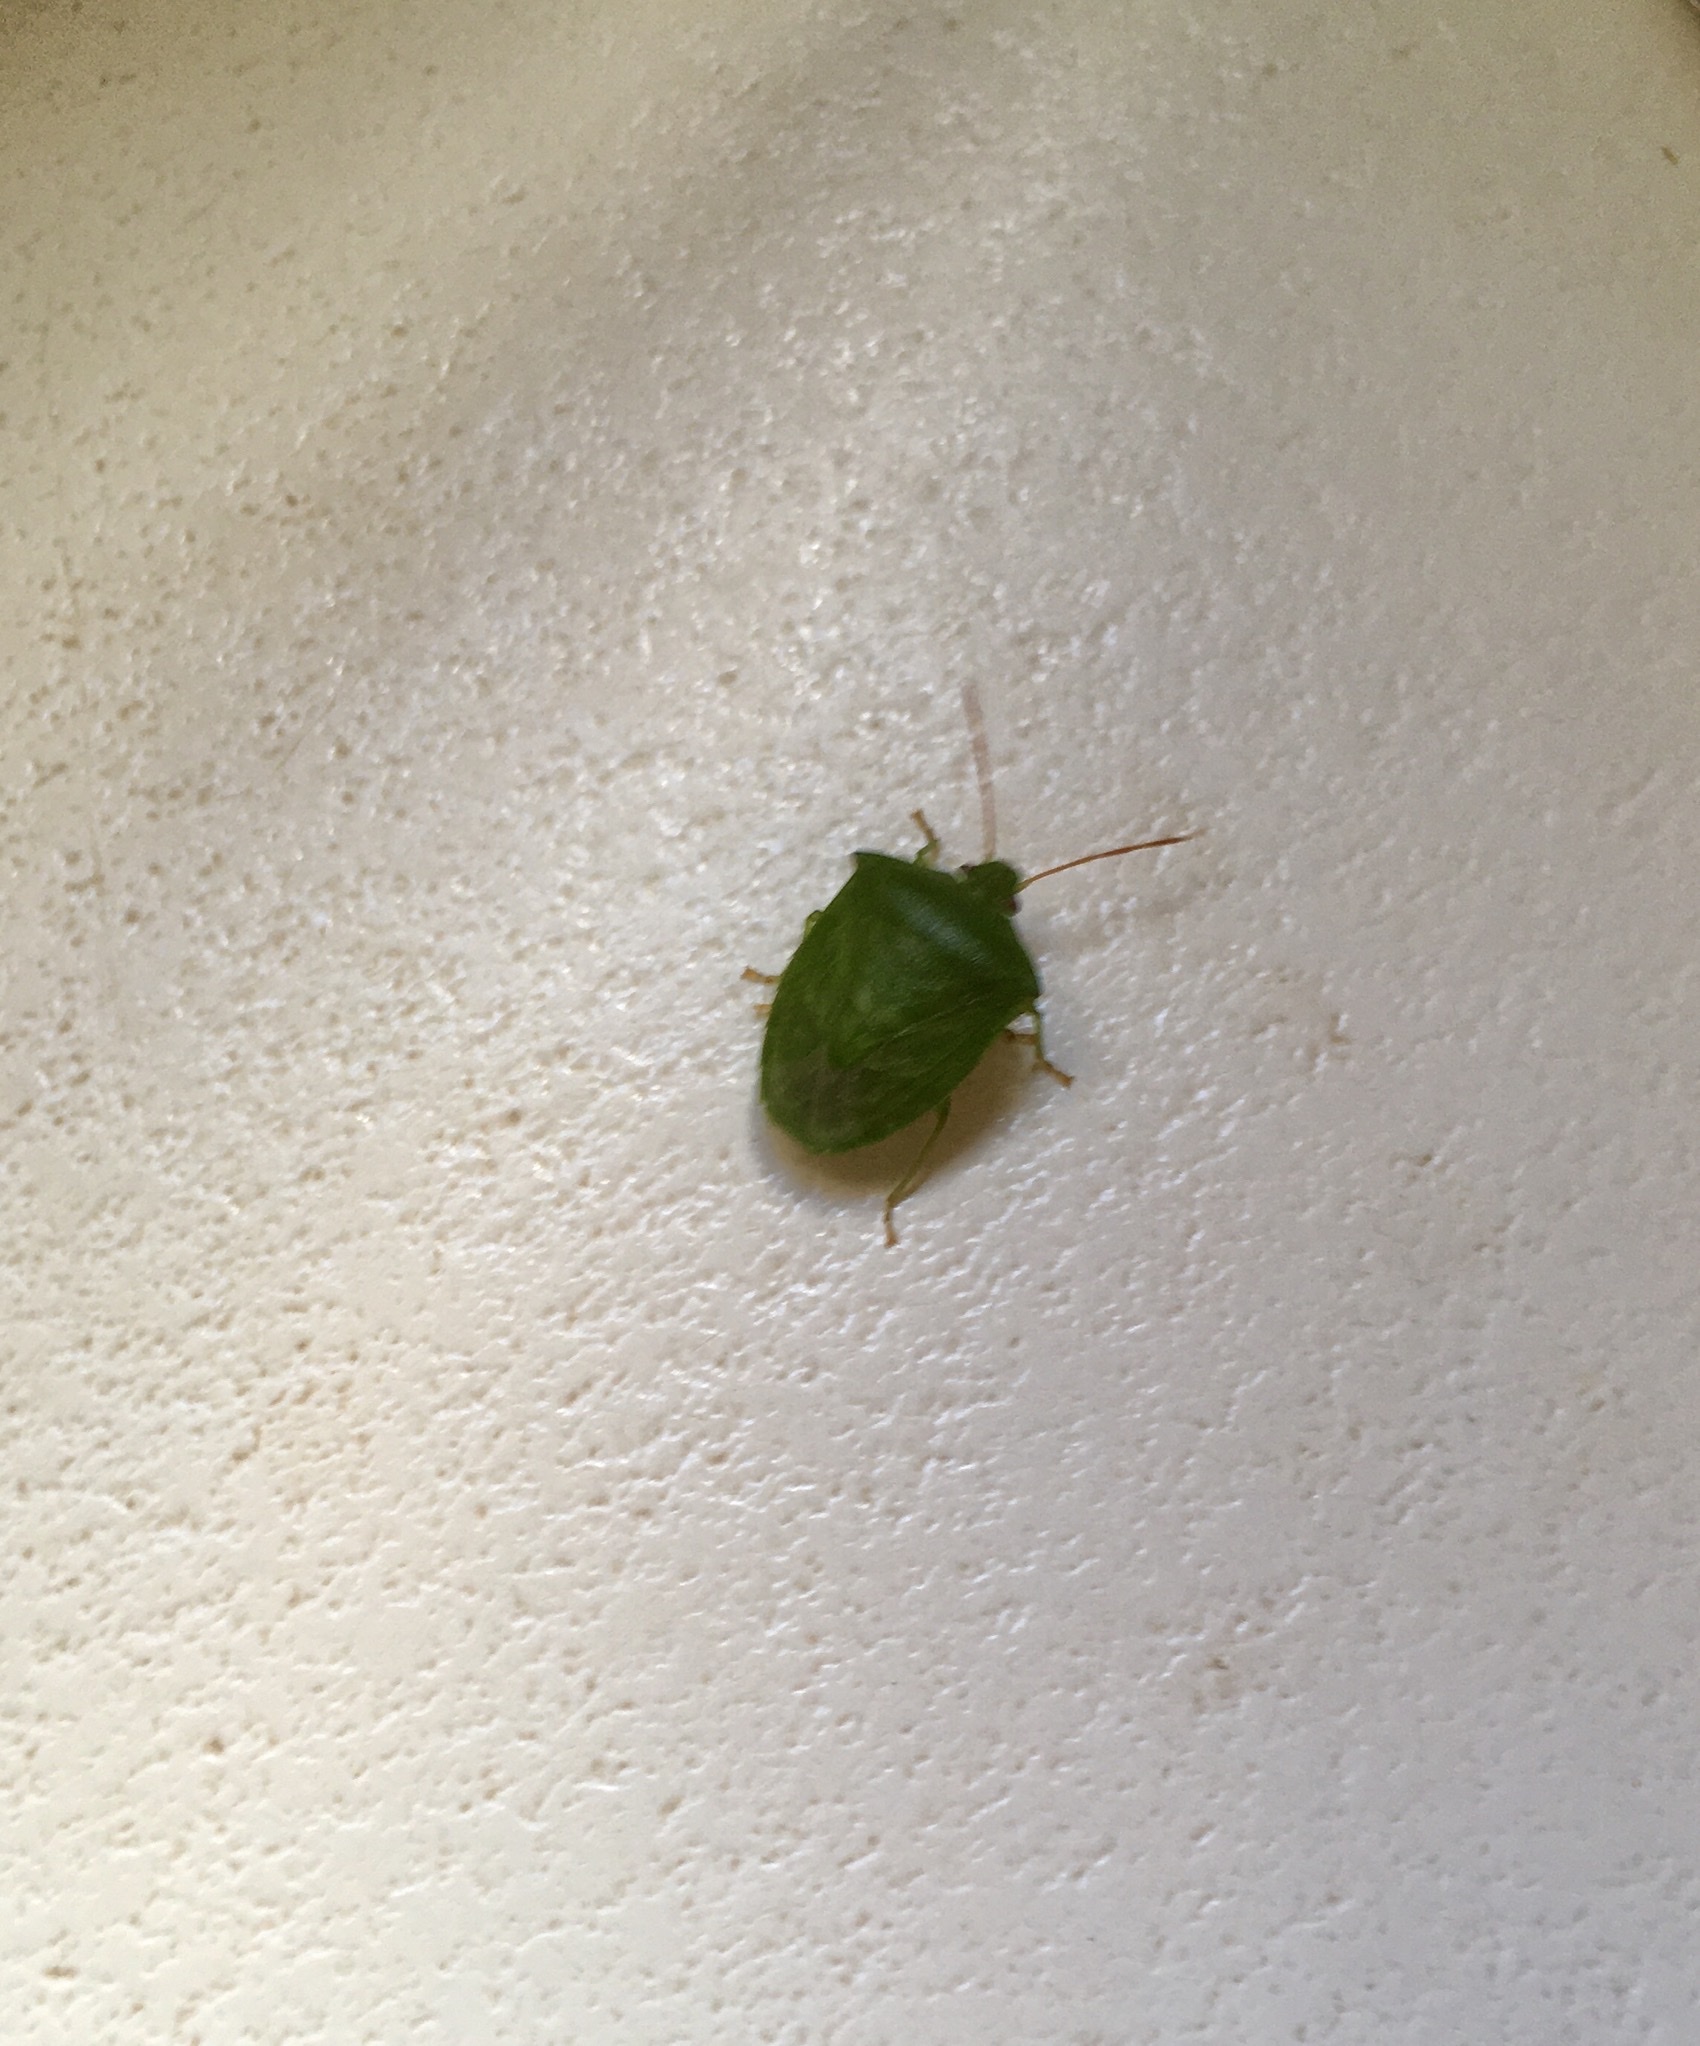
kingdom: Animalia
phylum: Arthropoda
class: Insecta
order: Hemiptera
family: Pentatomidae
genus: Cuspicona
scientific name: Cuspicona simplex
